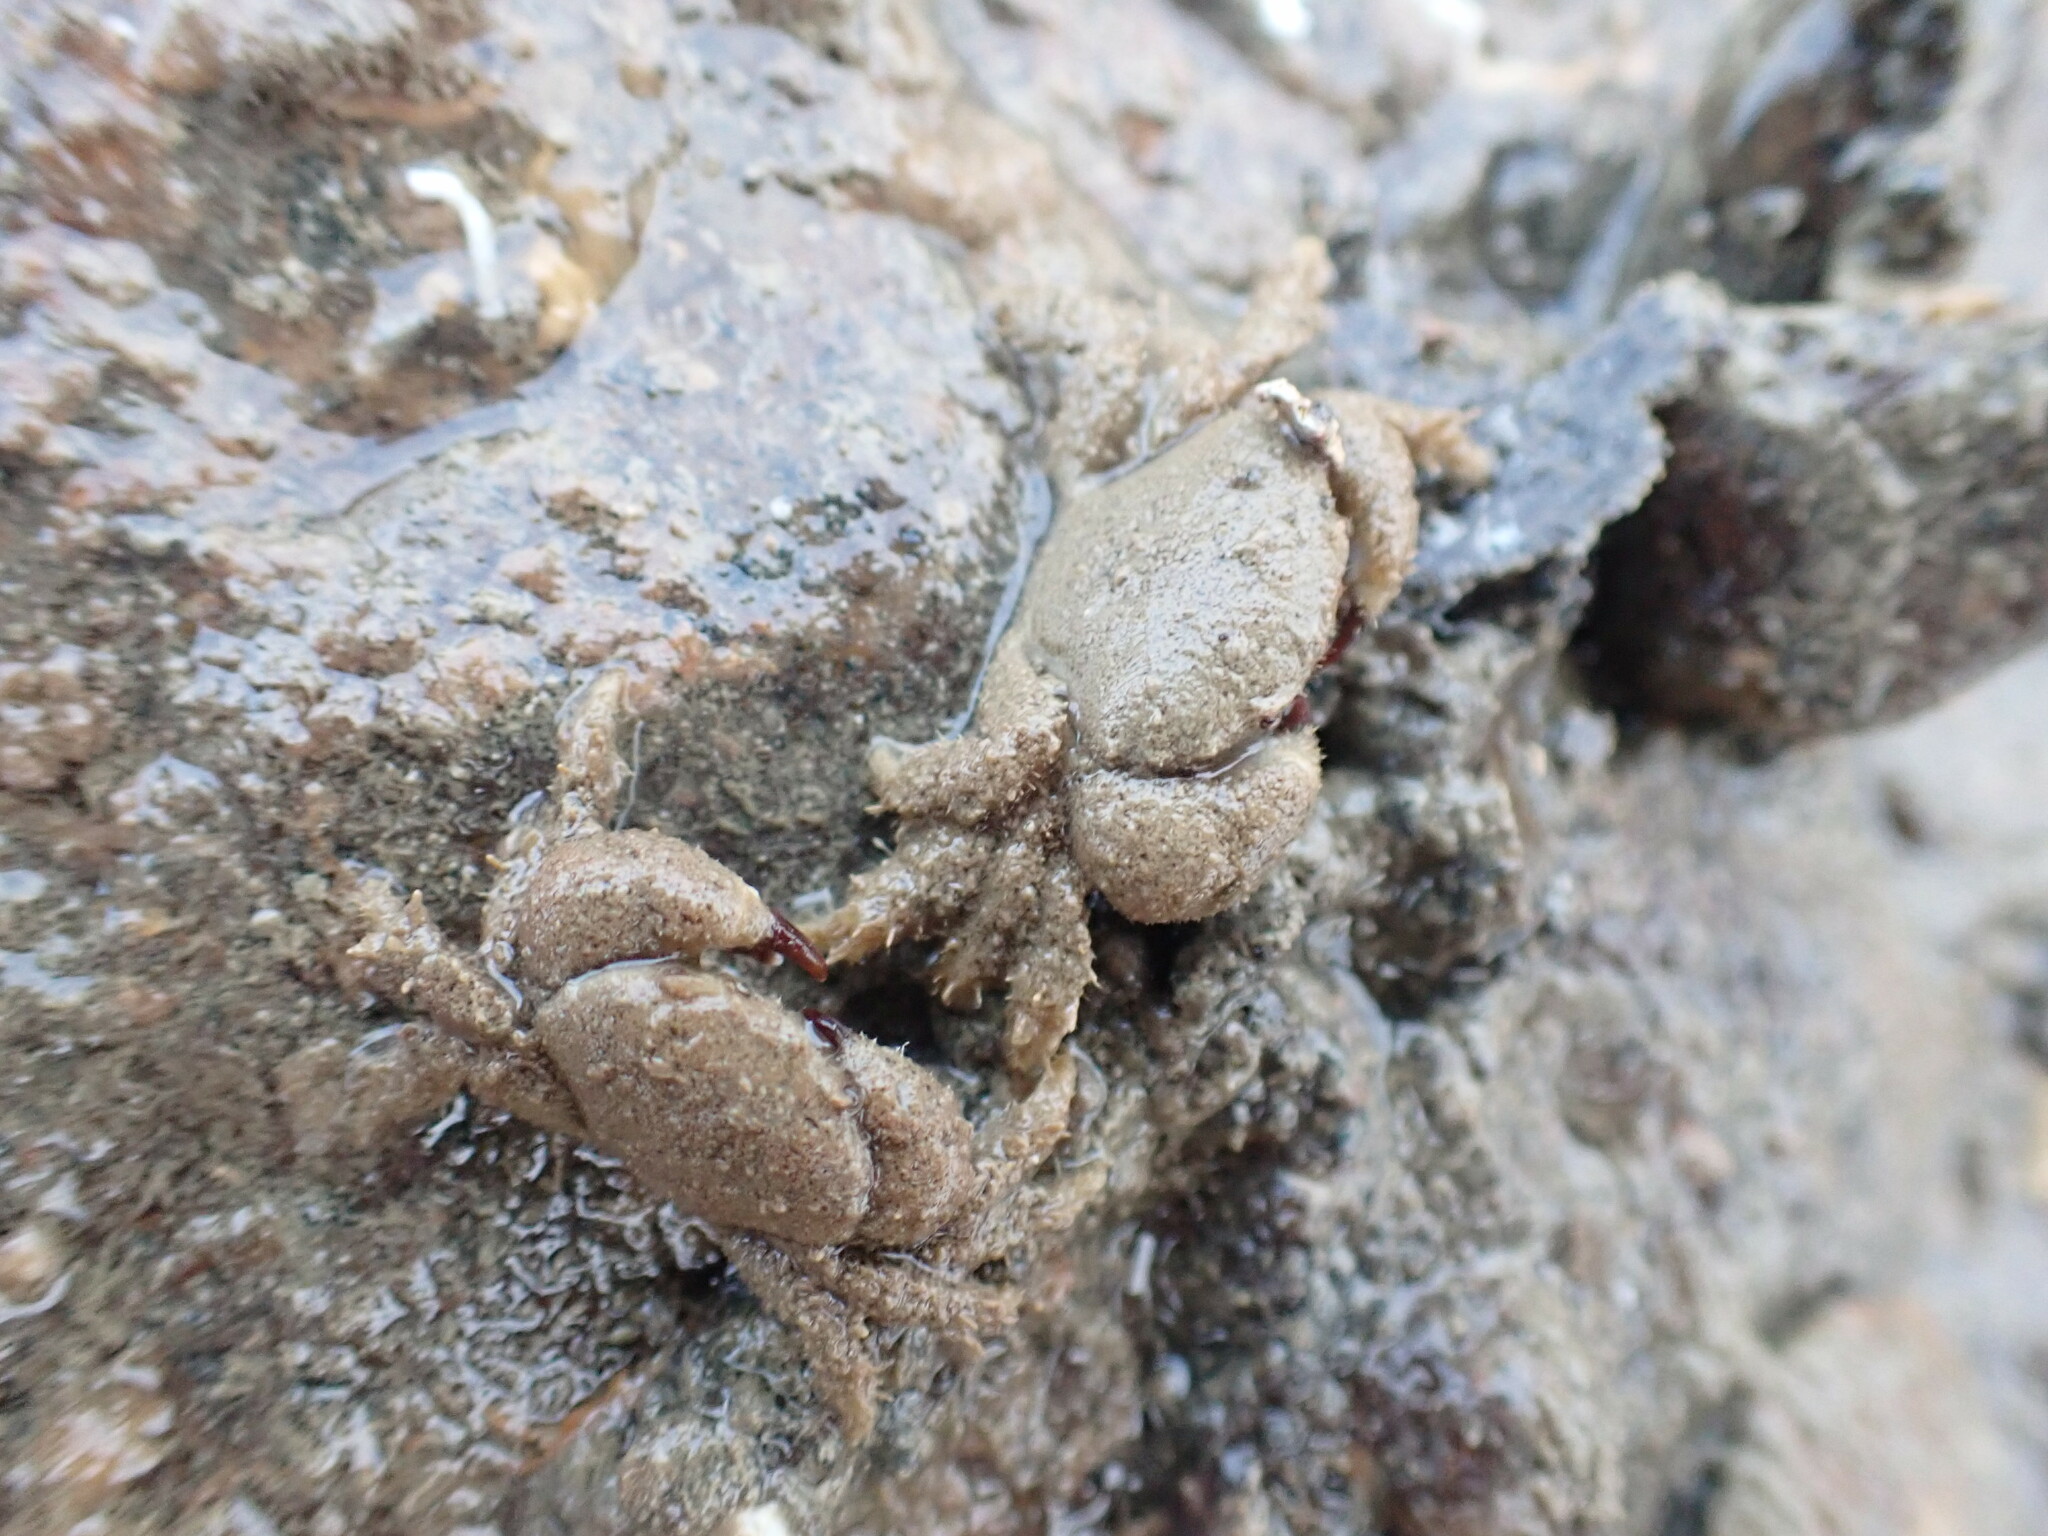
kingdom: Animalia
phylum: Arthropoda
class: Malacostraca
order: Decapoda
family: Pilumnidae
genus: Pilumnus
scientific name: Pilumnus lumpinus
